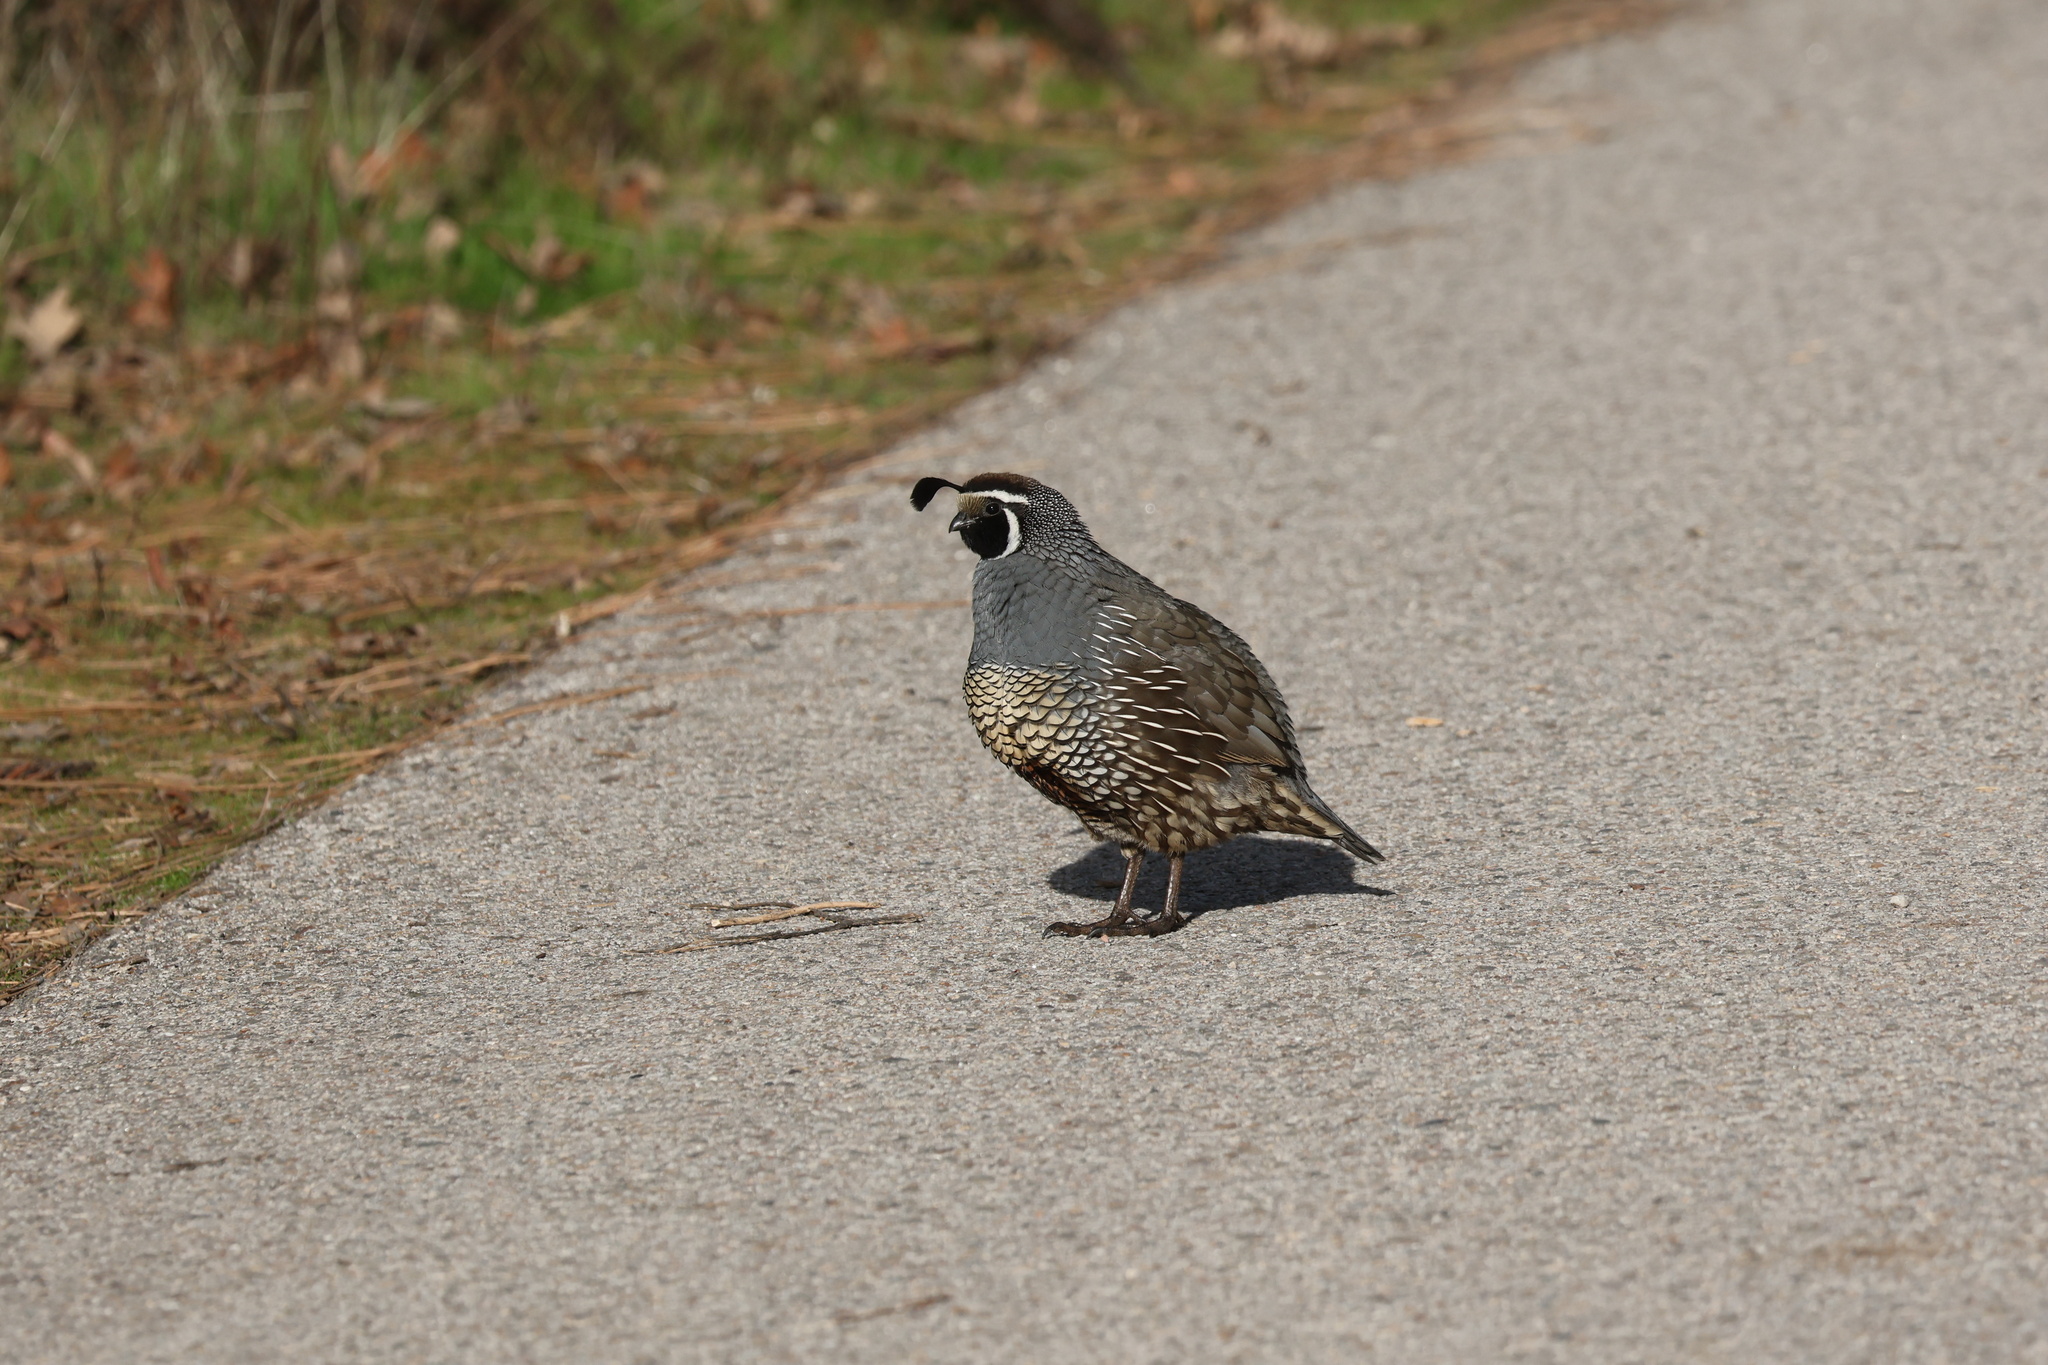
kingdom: Animalia
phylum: Chordata
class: Aves
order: Galliformes
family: Odontophoridae
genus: Callipepla
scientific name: Callipepla californica
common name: California quail
